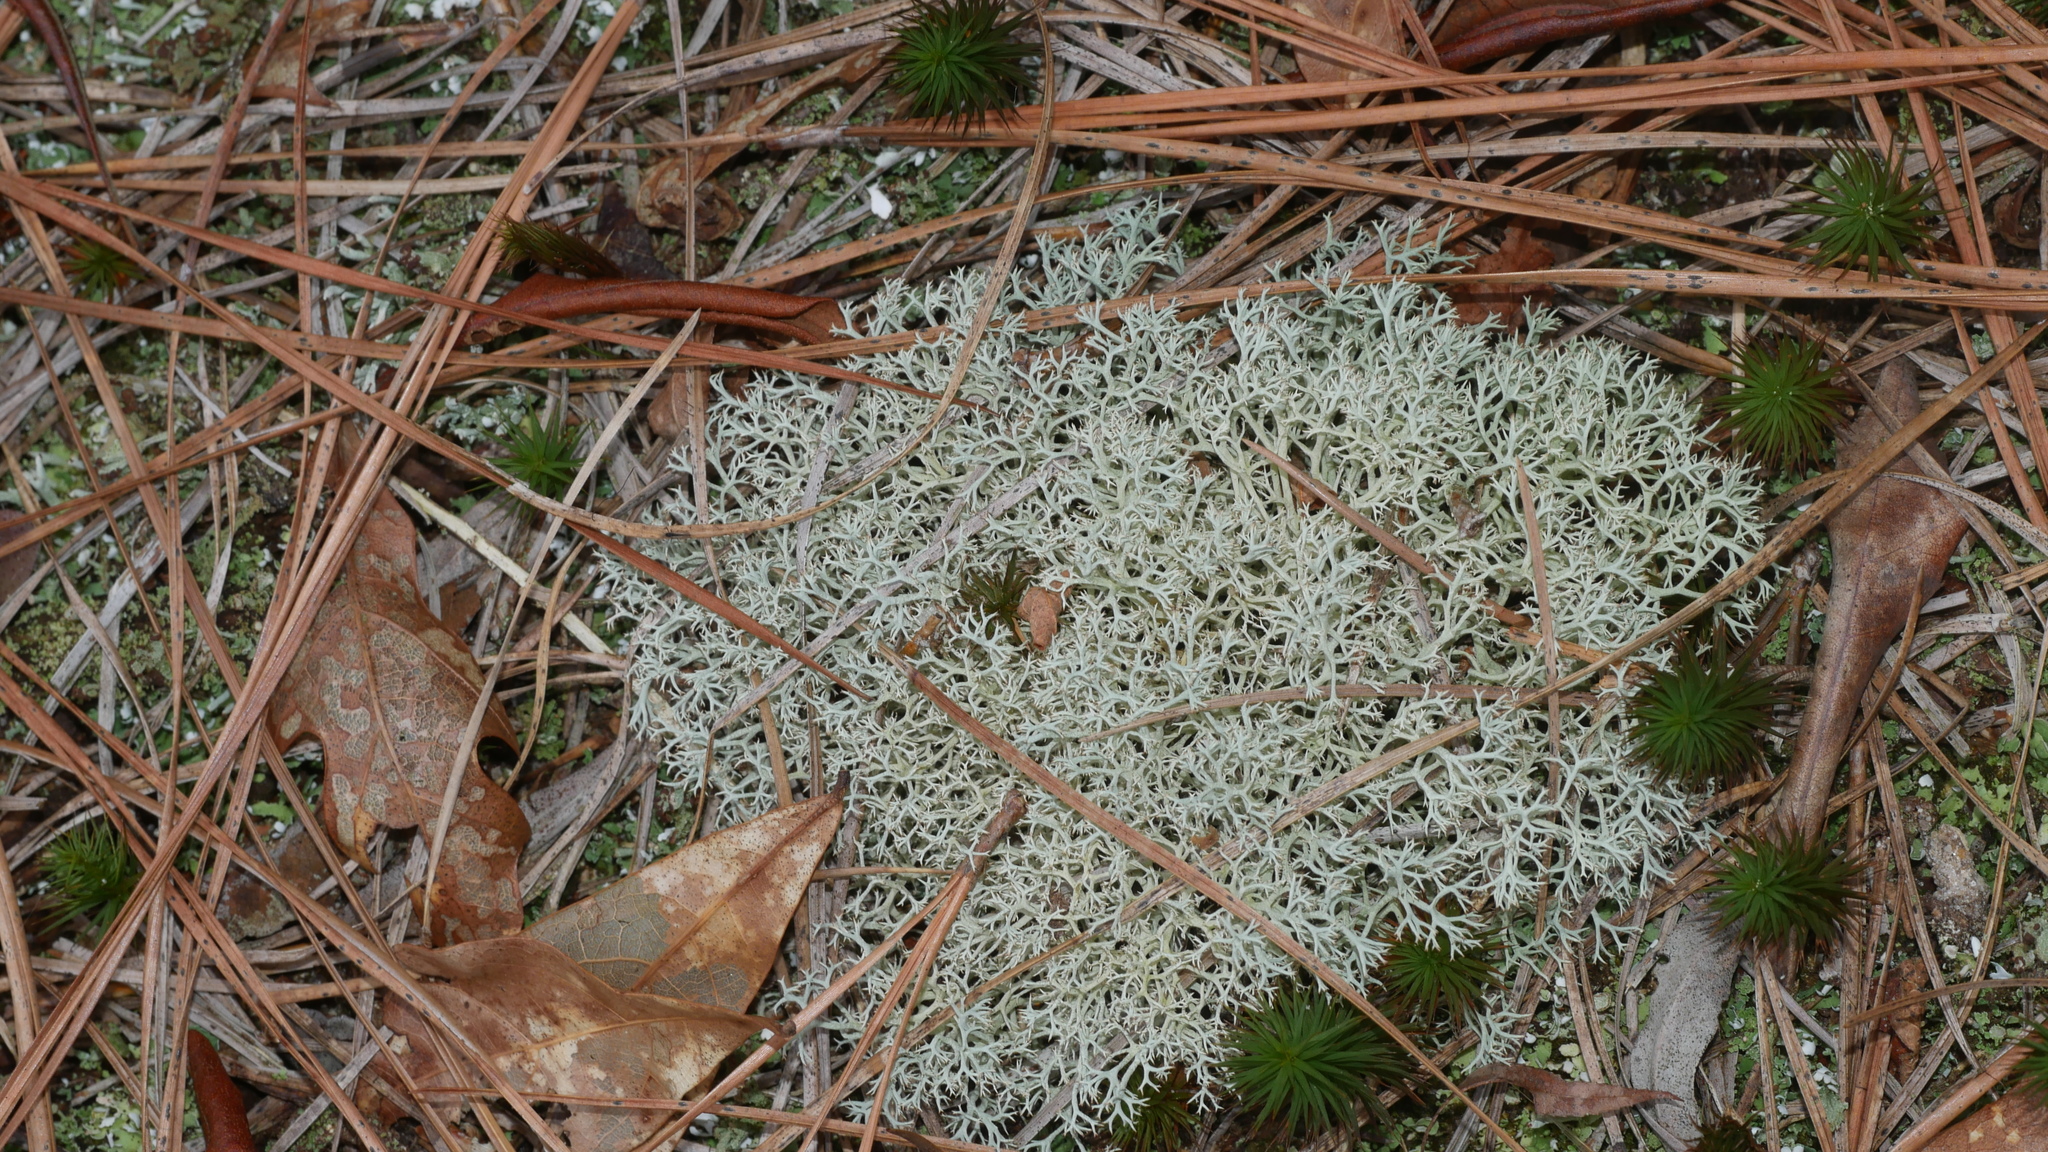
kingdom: Fungi
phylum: Ascomycota
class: Lecanoromycetes
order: Lecanorales
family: Cladoniaceae
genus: Cladonia
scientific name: Cladonia subtenuis
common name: Dixie reindeer lichen
